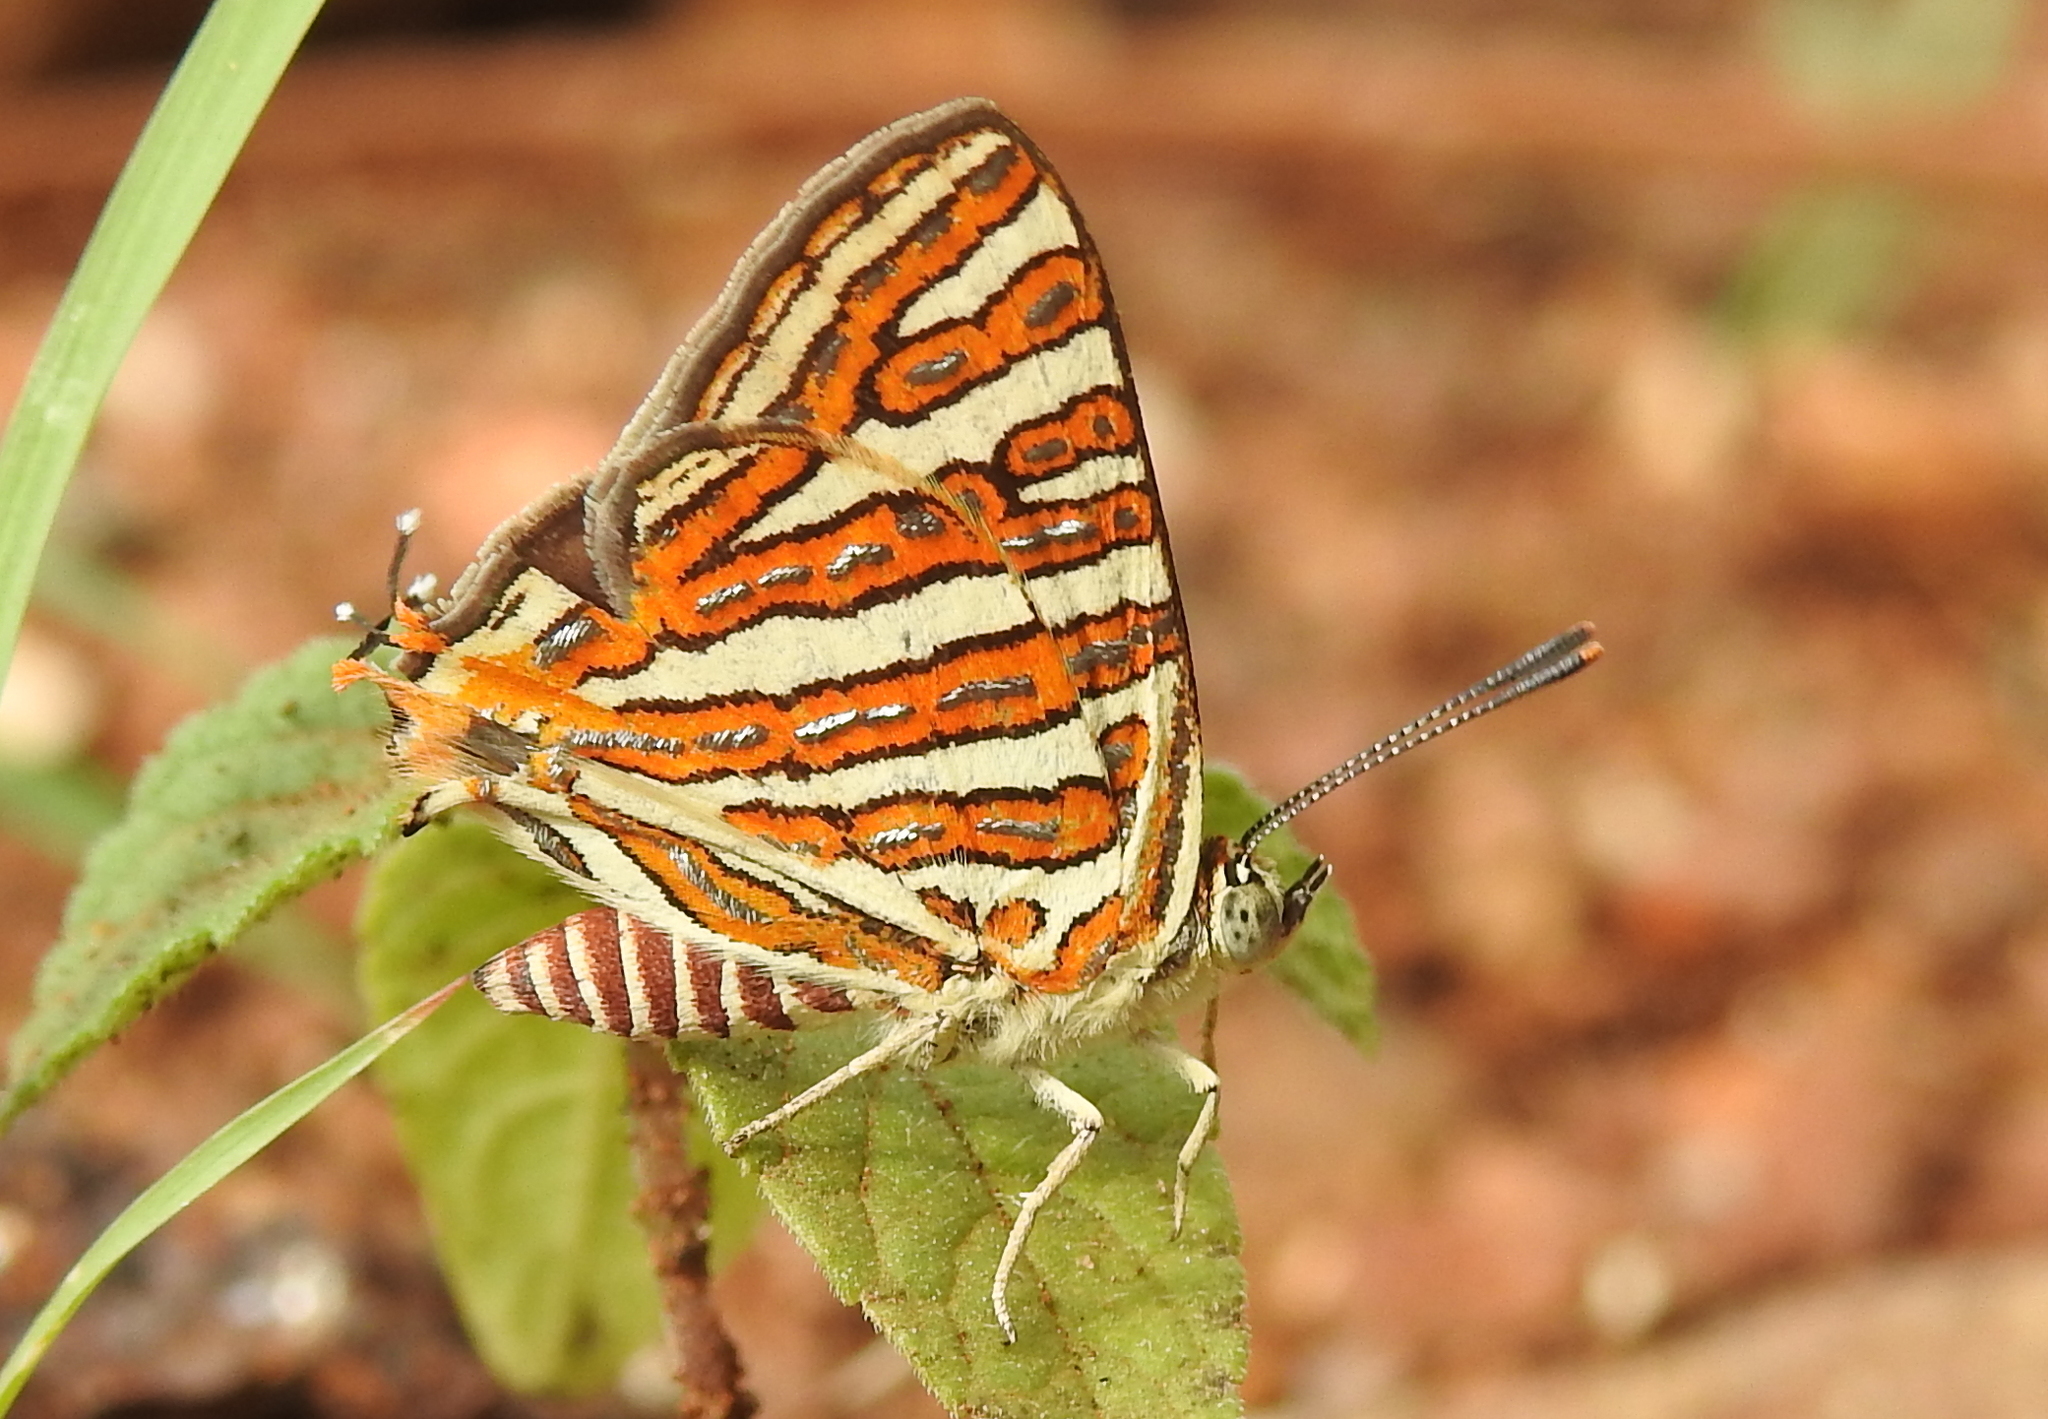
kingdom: Animalia
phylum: Arthropoda
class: Insecta
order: Lepidoptera
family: Lycaenidae
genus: Cigaritis
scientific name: Cigaritis vulcanus
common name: Common silverline
